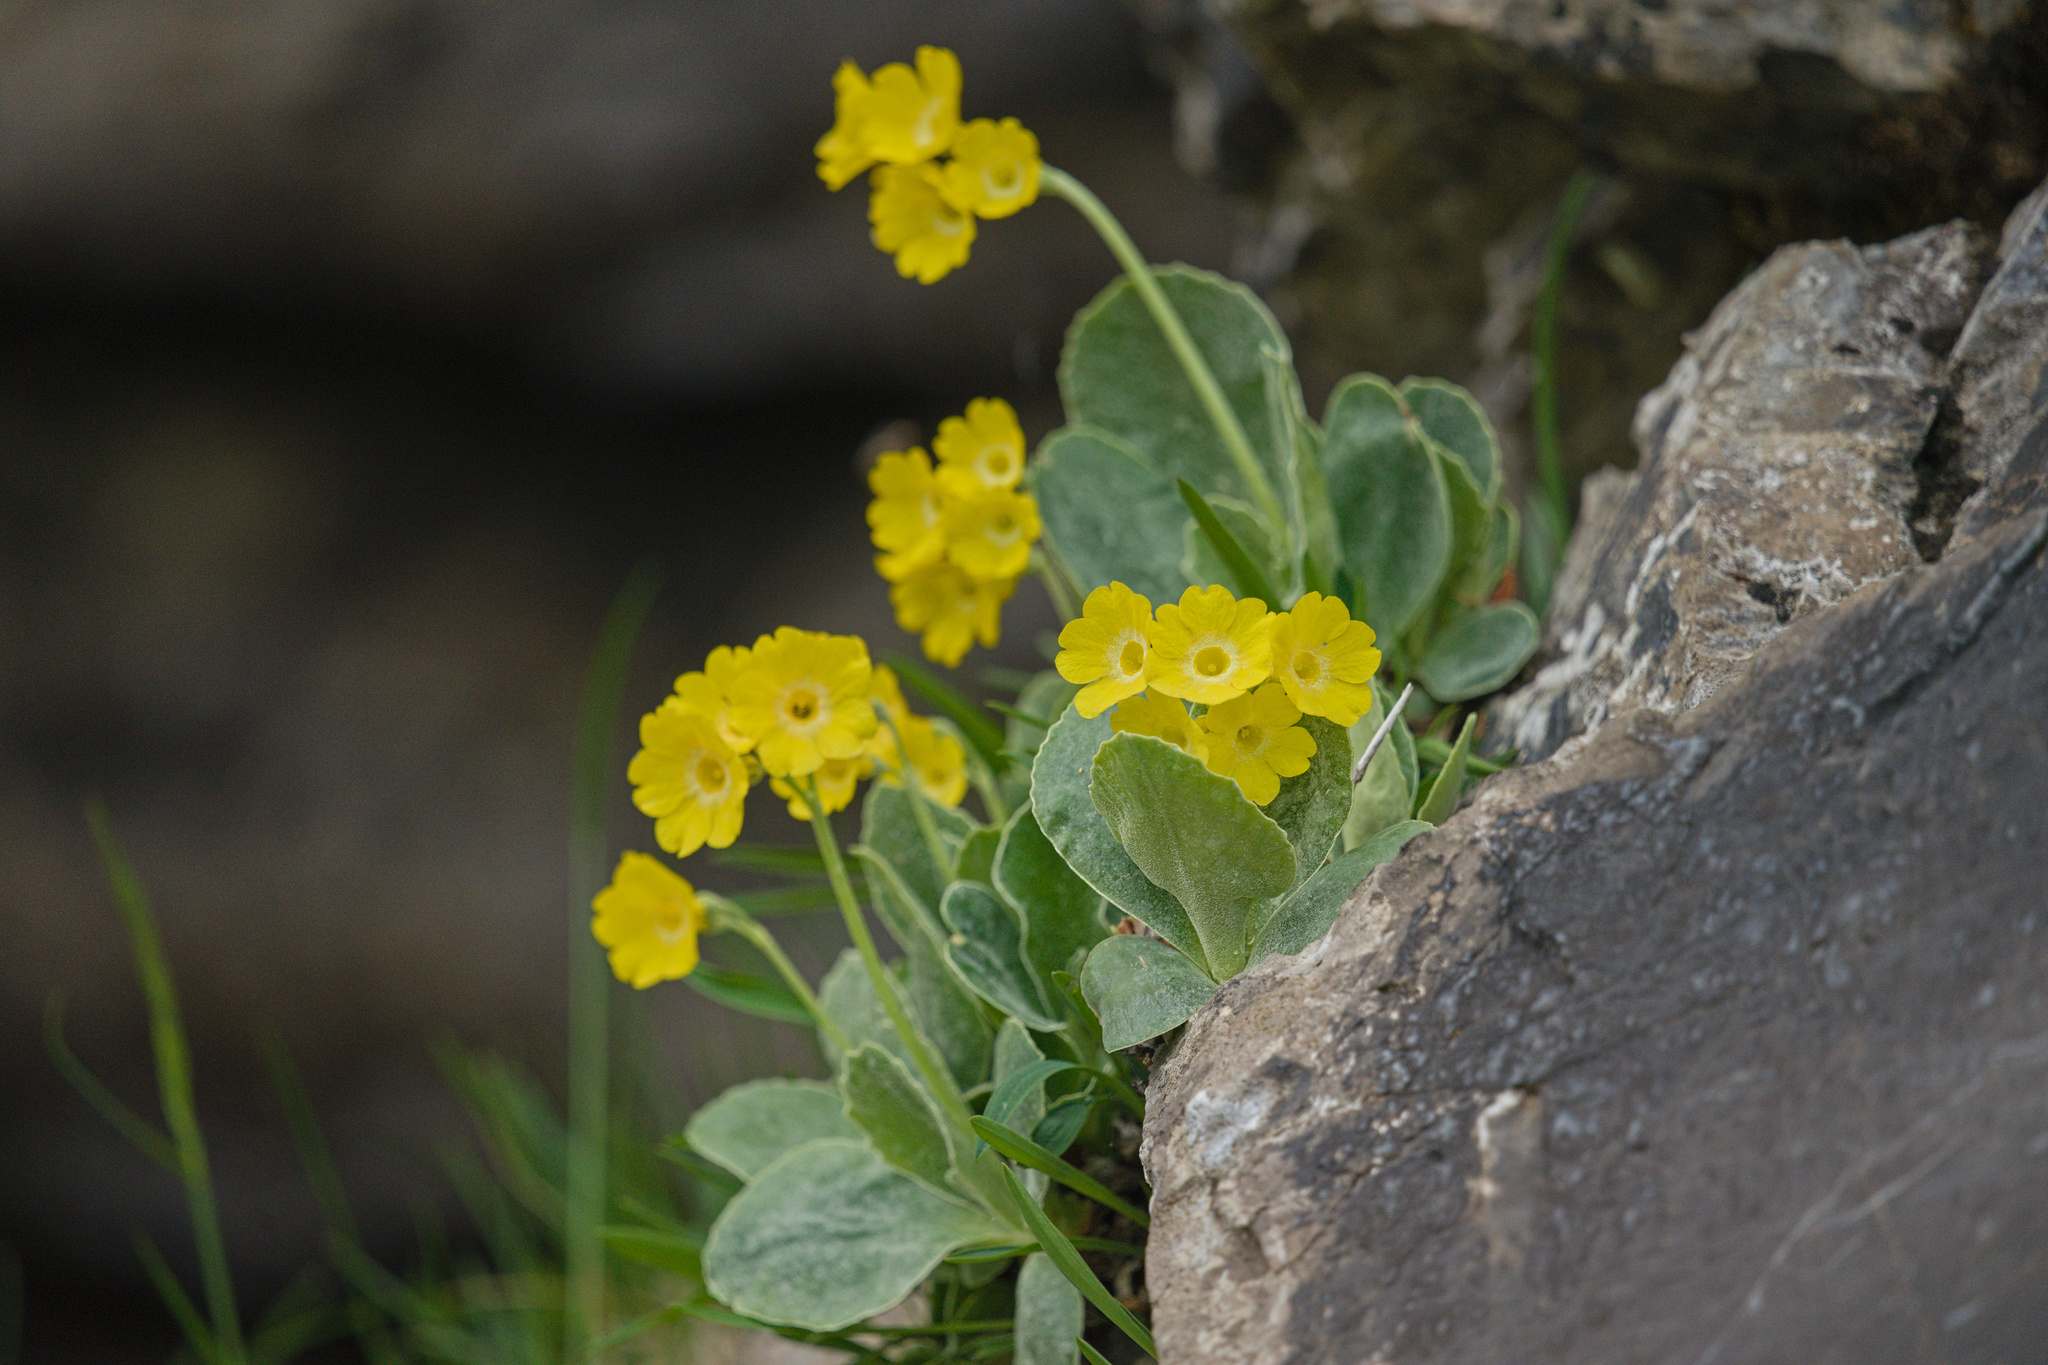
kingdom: Plantae
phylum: Tracheophyta
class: Magnoliopsida
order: Ericales
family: Primulaceae
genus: Primula
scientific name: Primula auricula
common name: Auricula
